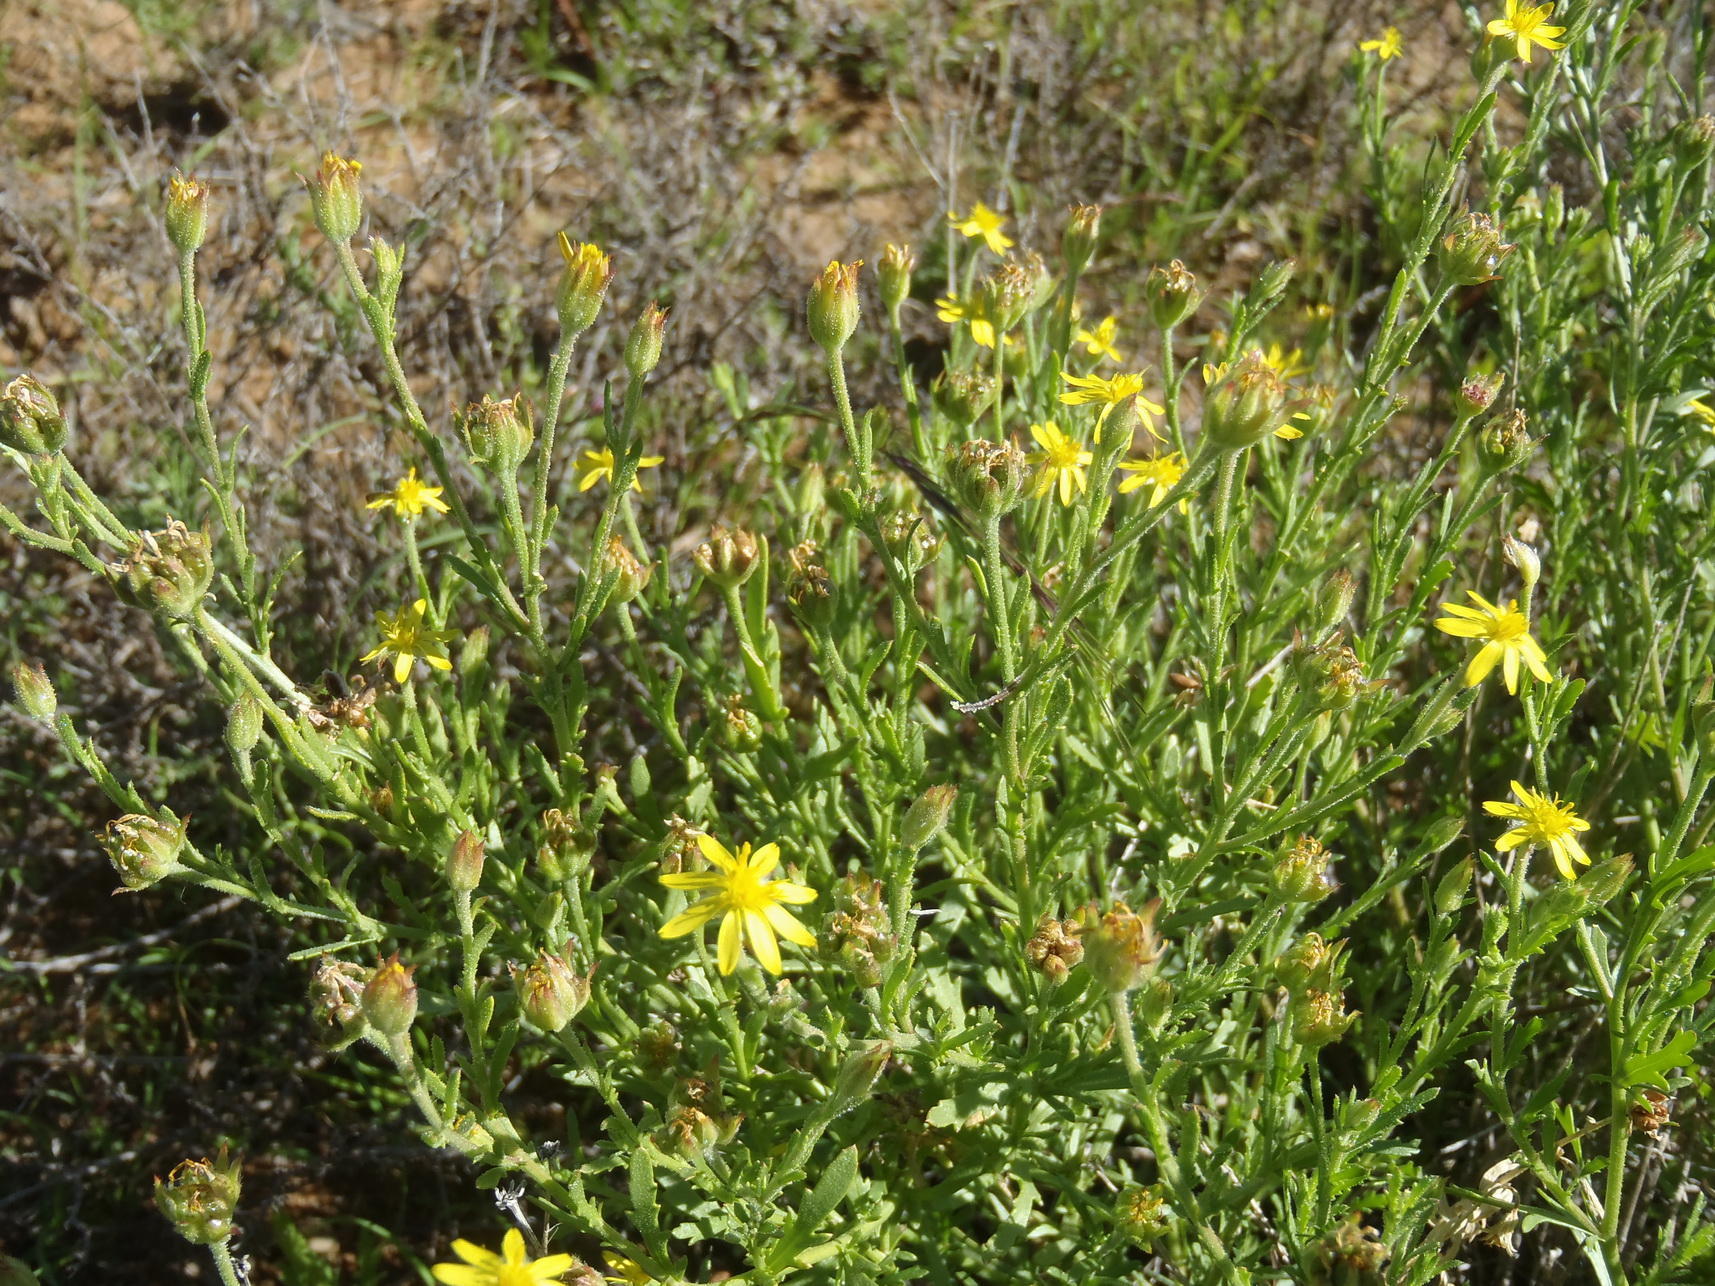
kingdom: Plantae
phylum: Tracheophyta
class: Magnoliopsida
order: Asterales
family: Asteraceae
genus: Osteospermum
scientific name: Osteospermum muricatum
